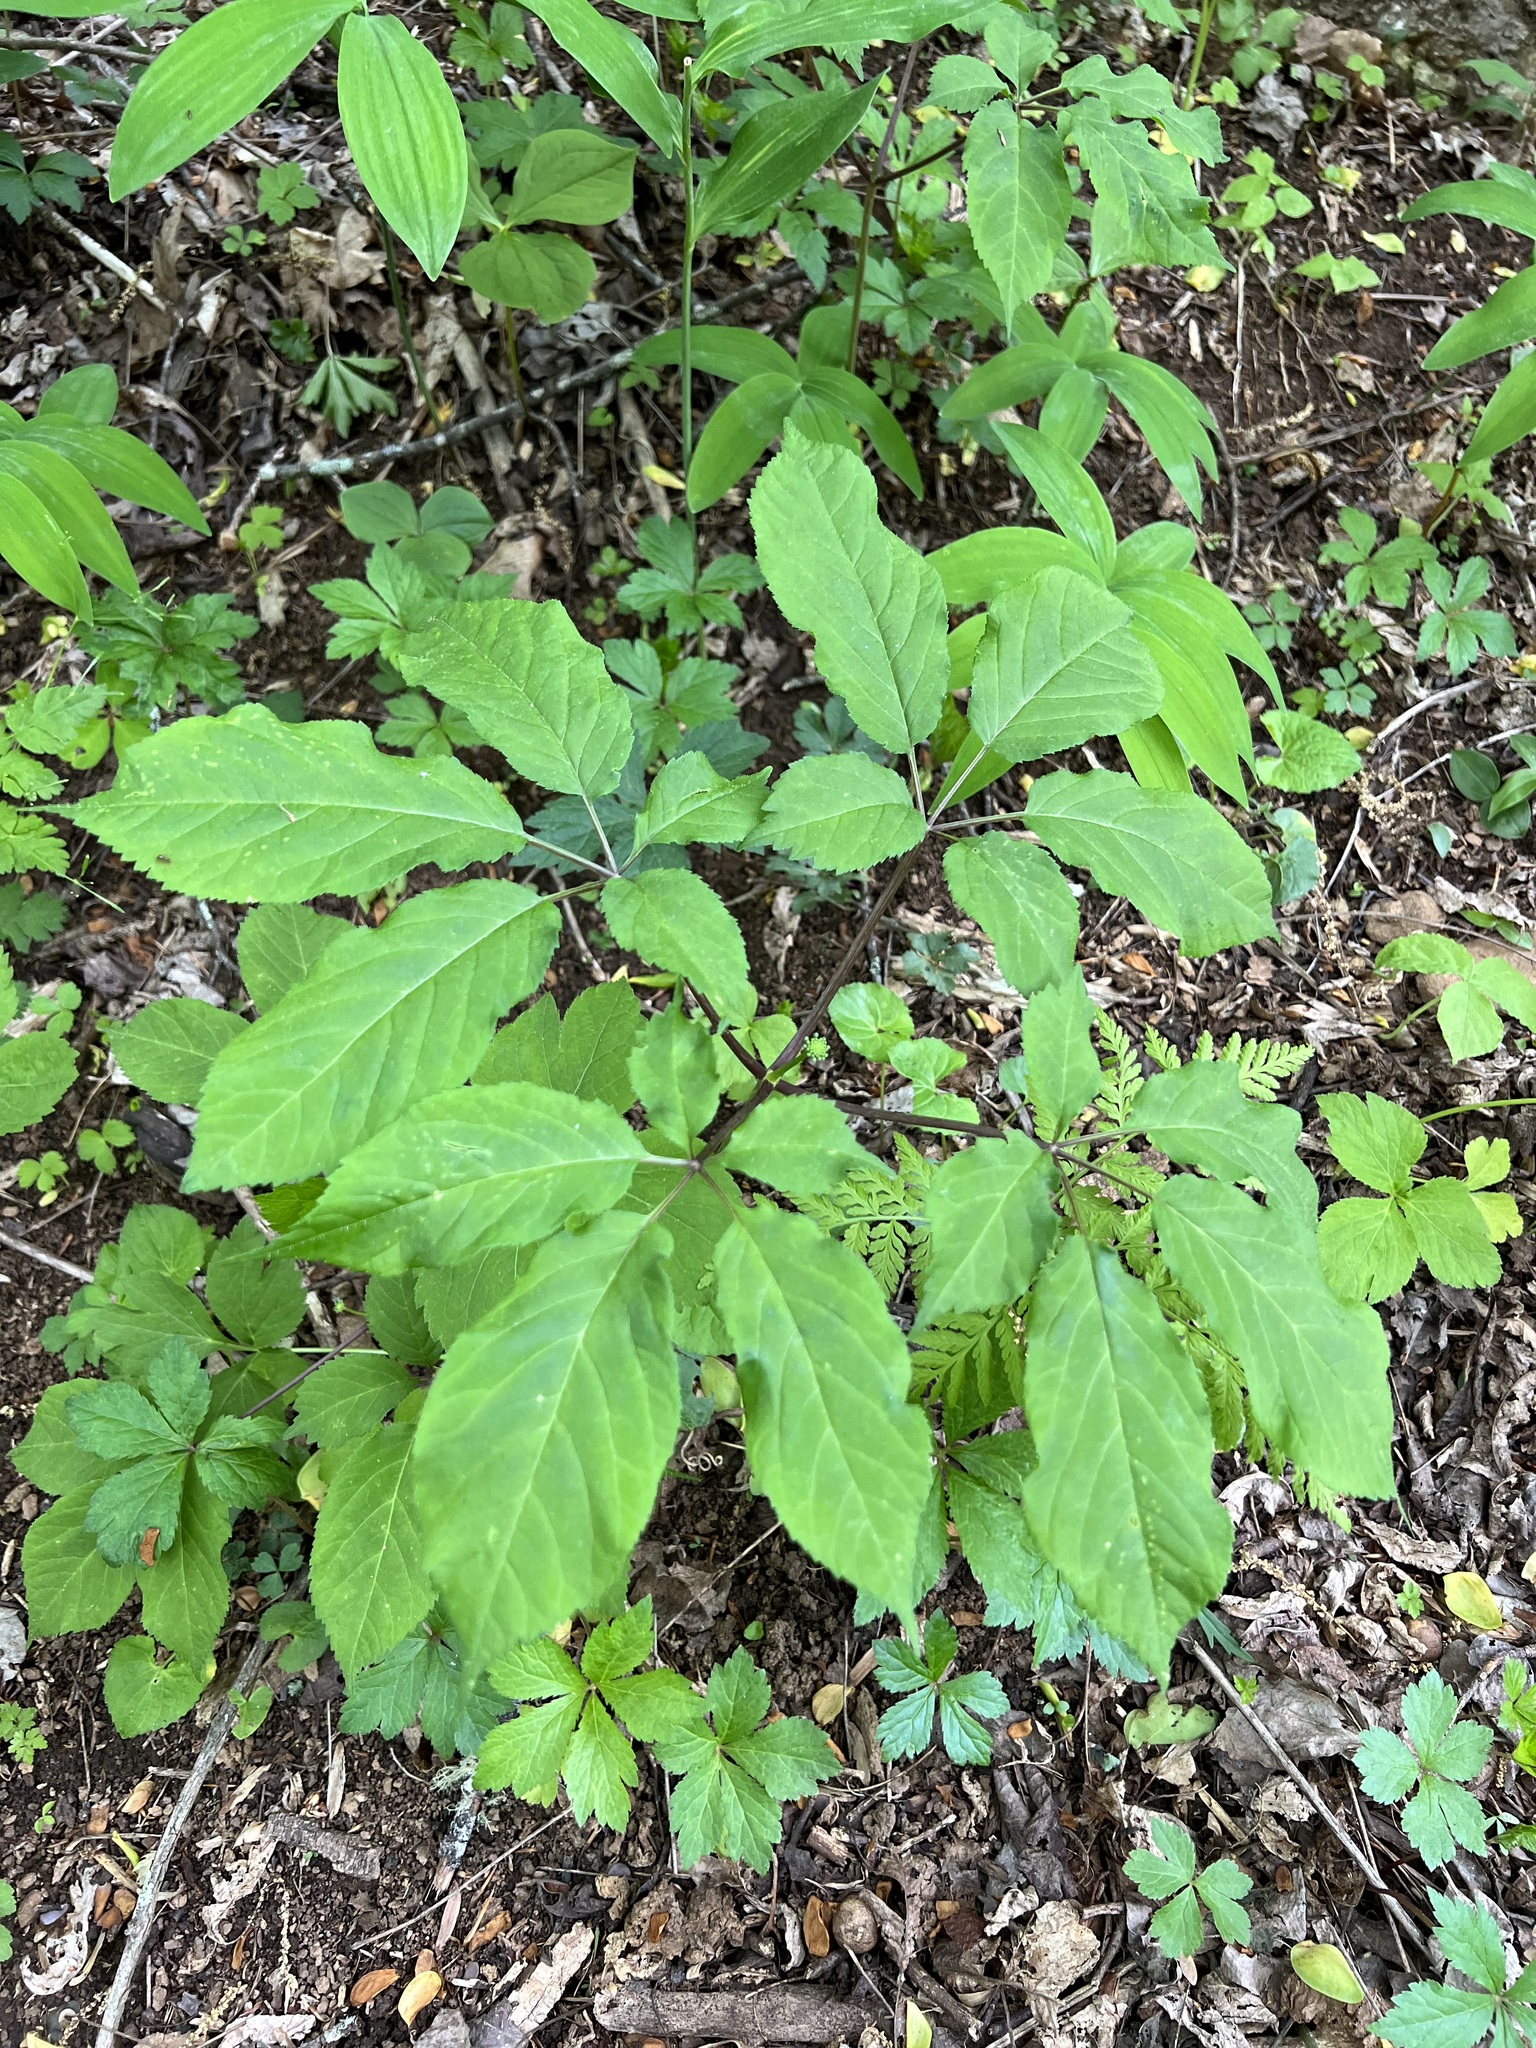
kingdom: Plantae
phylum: Tracheophyta
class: Magnoliopsida
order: Apiales
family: Araliaceae
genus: Panax
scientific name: Panax quinquefolius
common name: American ginseng
